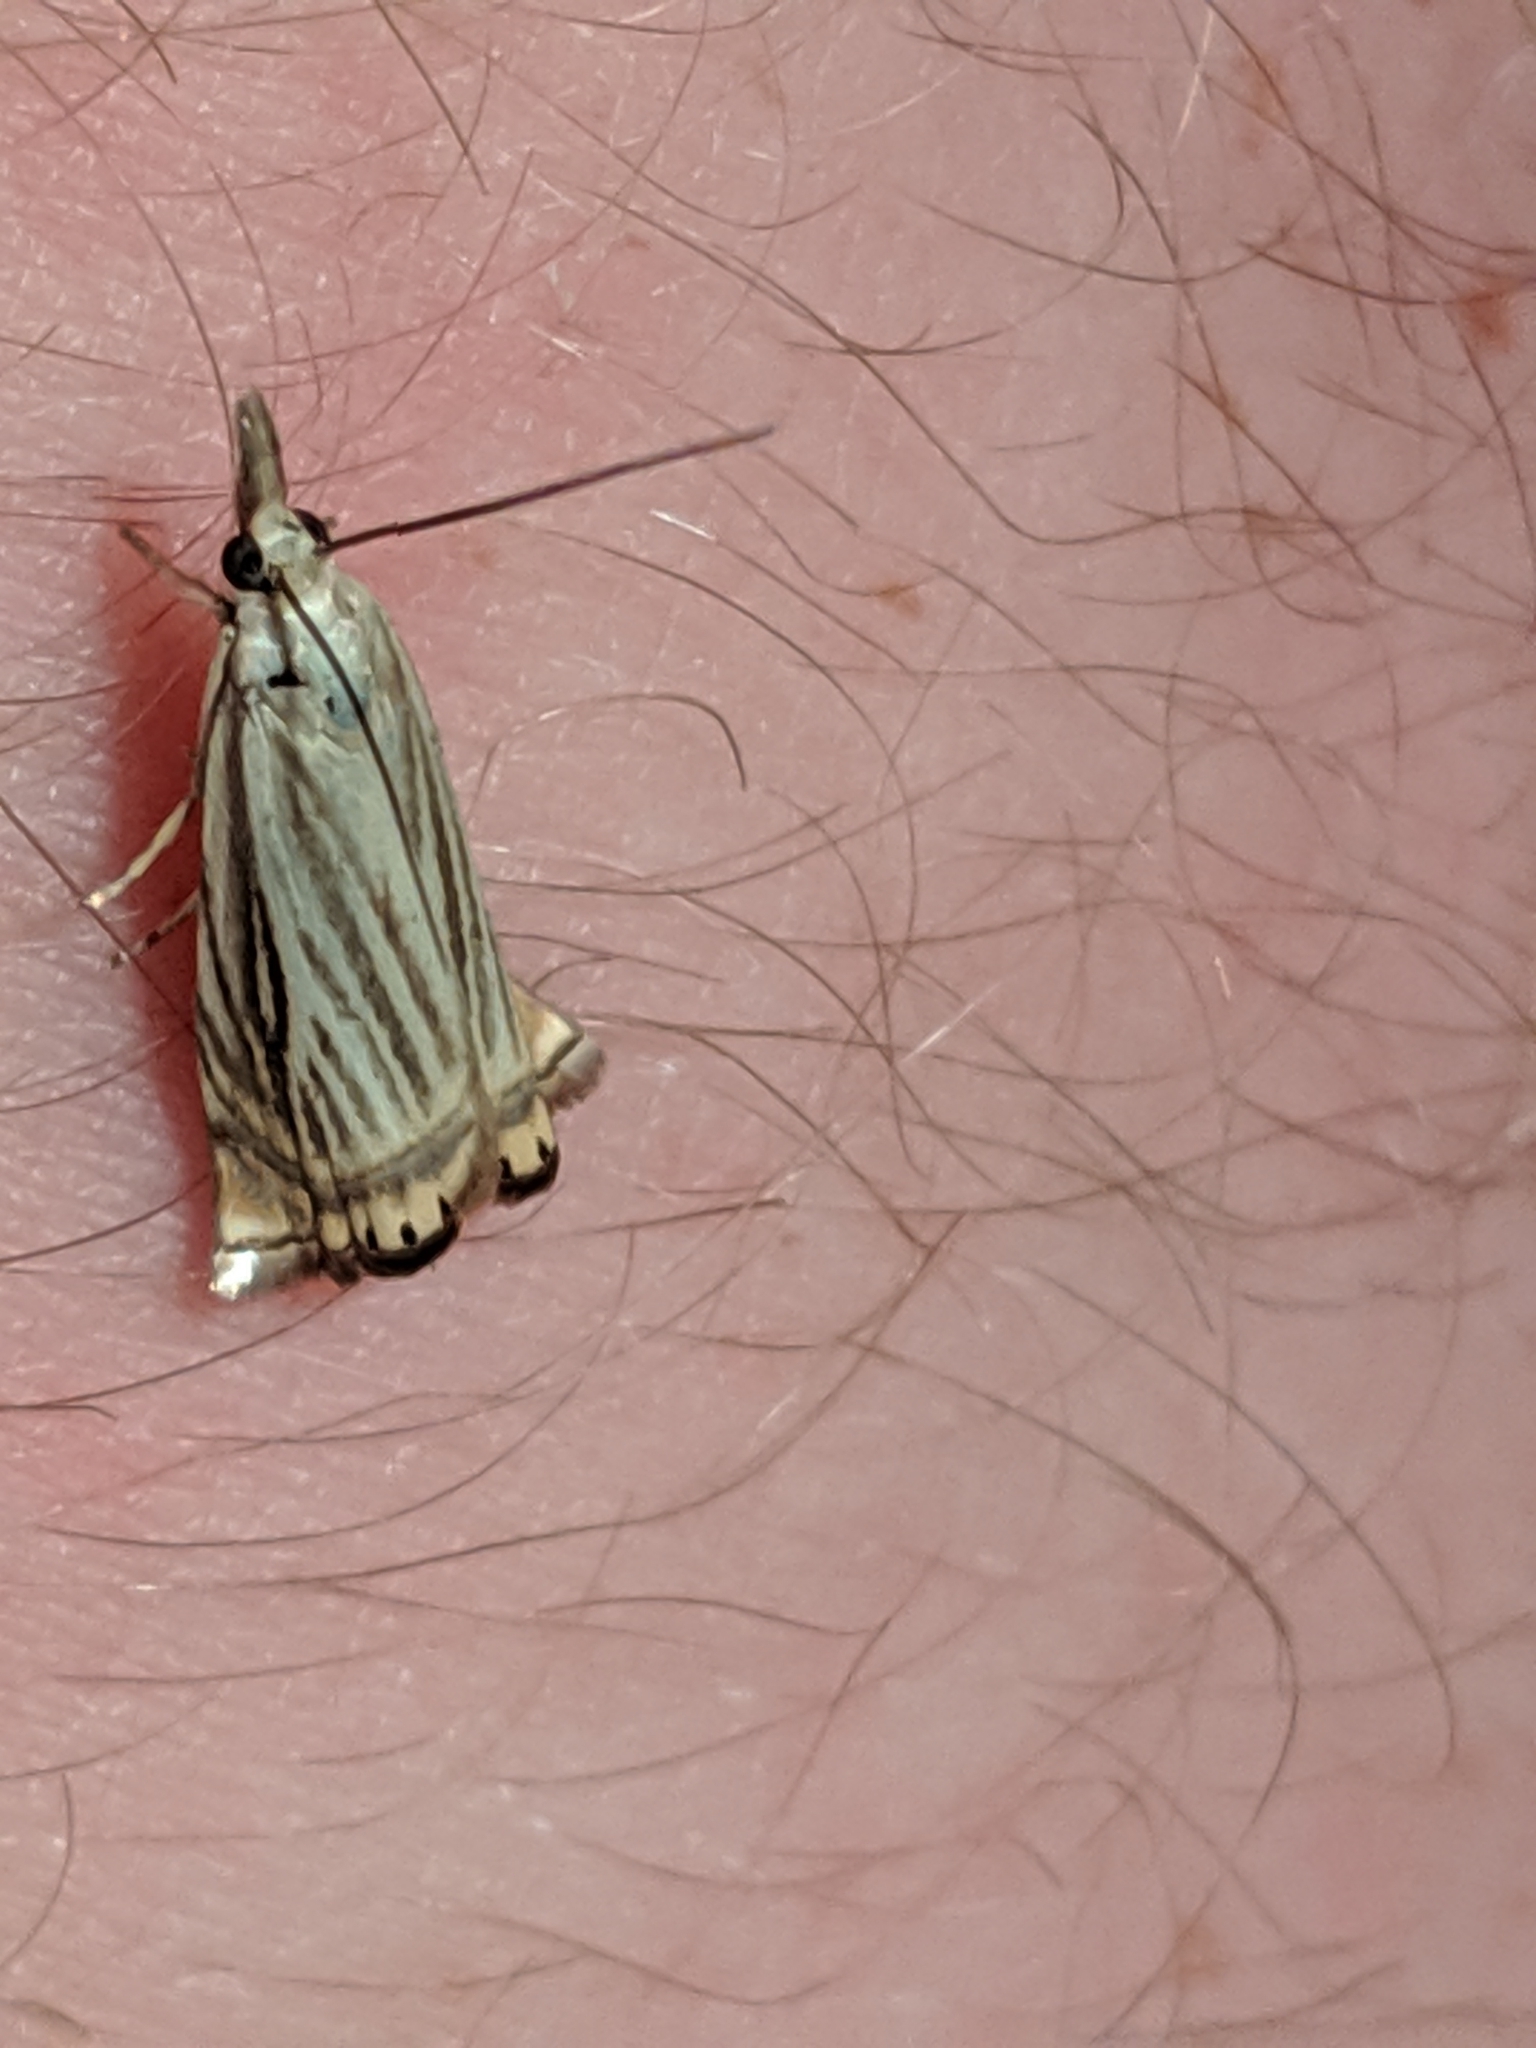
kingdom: Animalia
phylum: Arthropoda
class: Insecta
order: Lepidoptera
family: Crambidae
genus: Chrysoteuchia
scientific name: Chrysoteuchia topiarius
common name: Topiary grass-veneer
